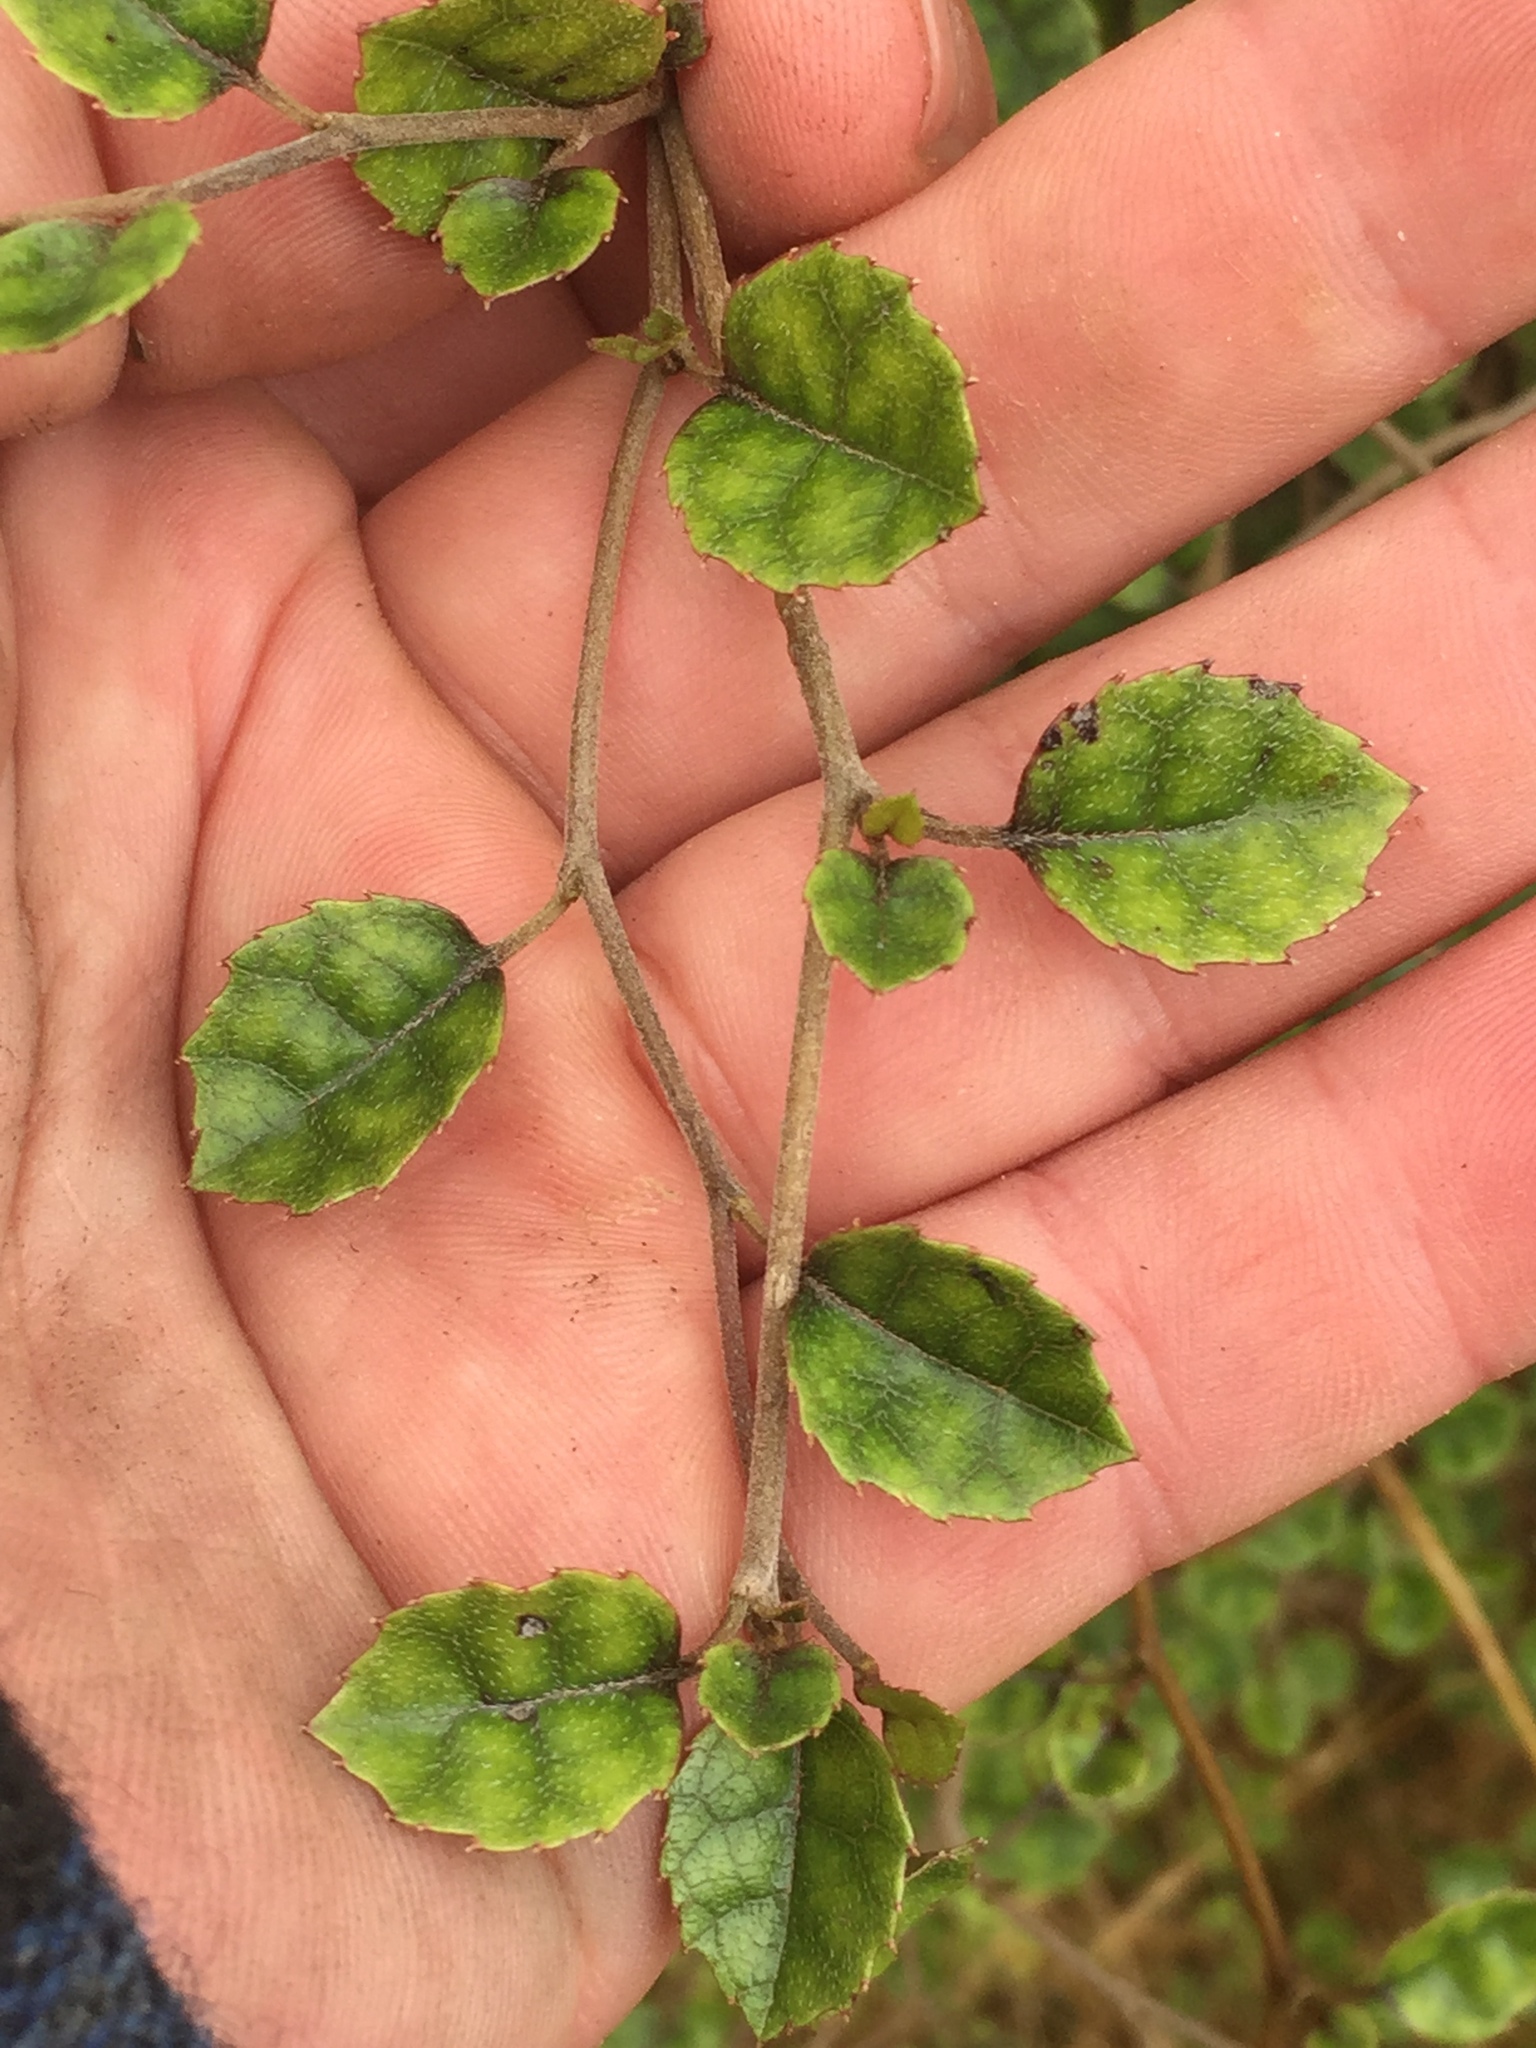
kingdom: Plantae
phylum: Tracheophyta
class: Magnoliopsida
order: Asterales
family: Rousseaceae
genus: Carpodetus
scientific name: Carpodetus serratus
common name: White mapau
